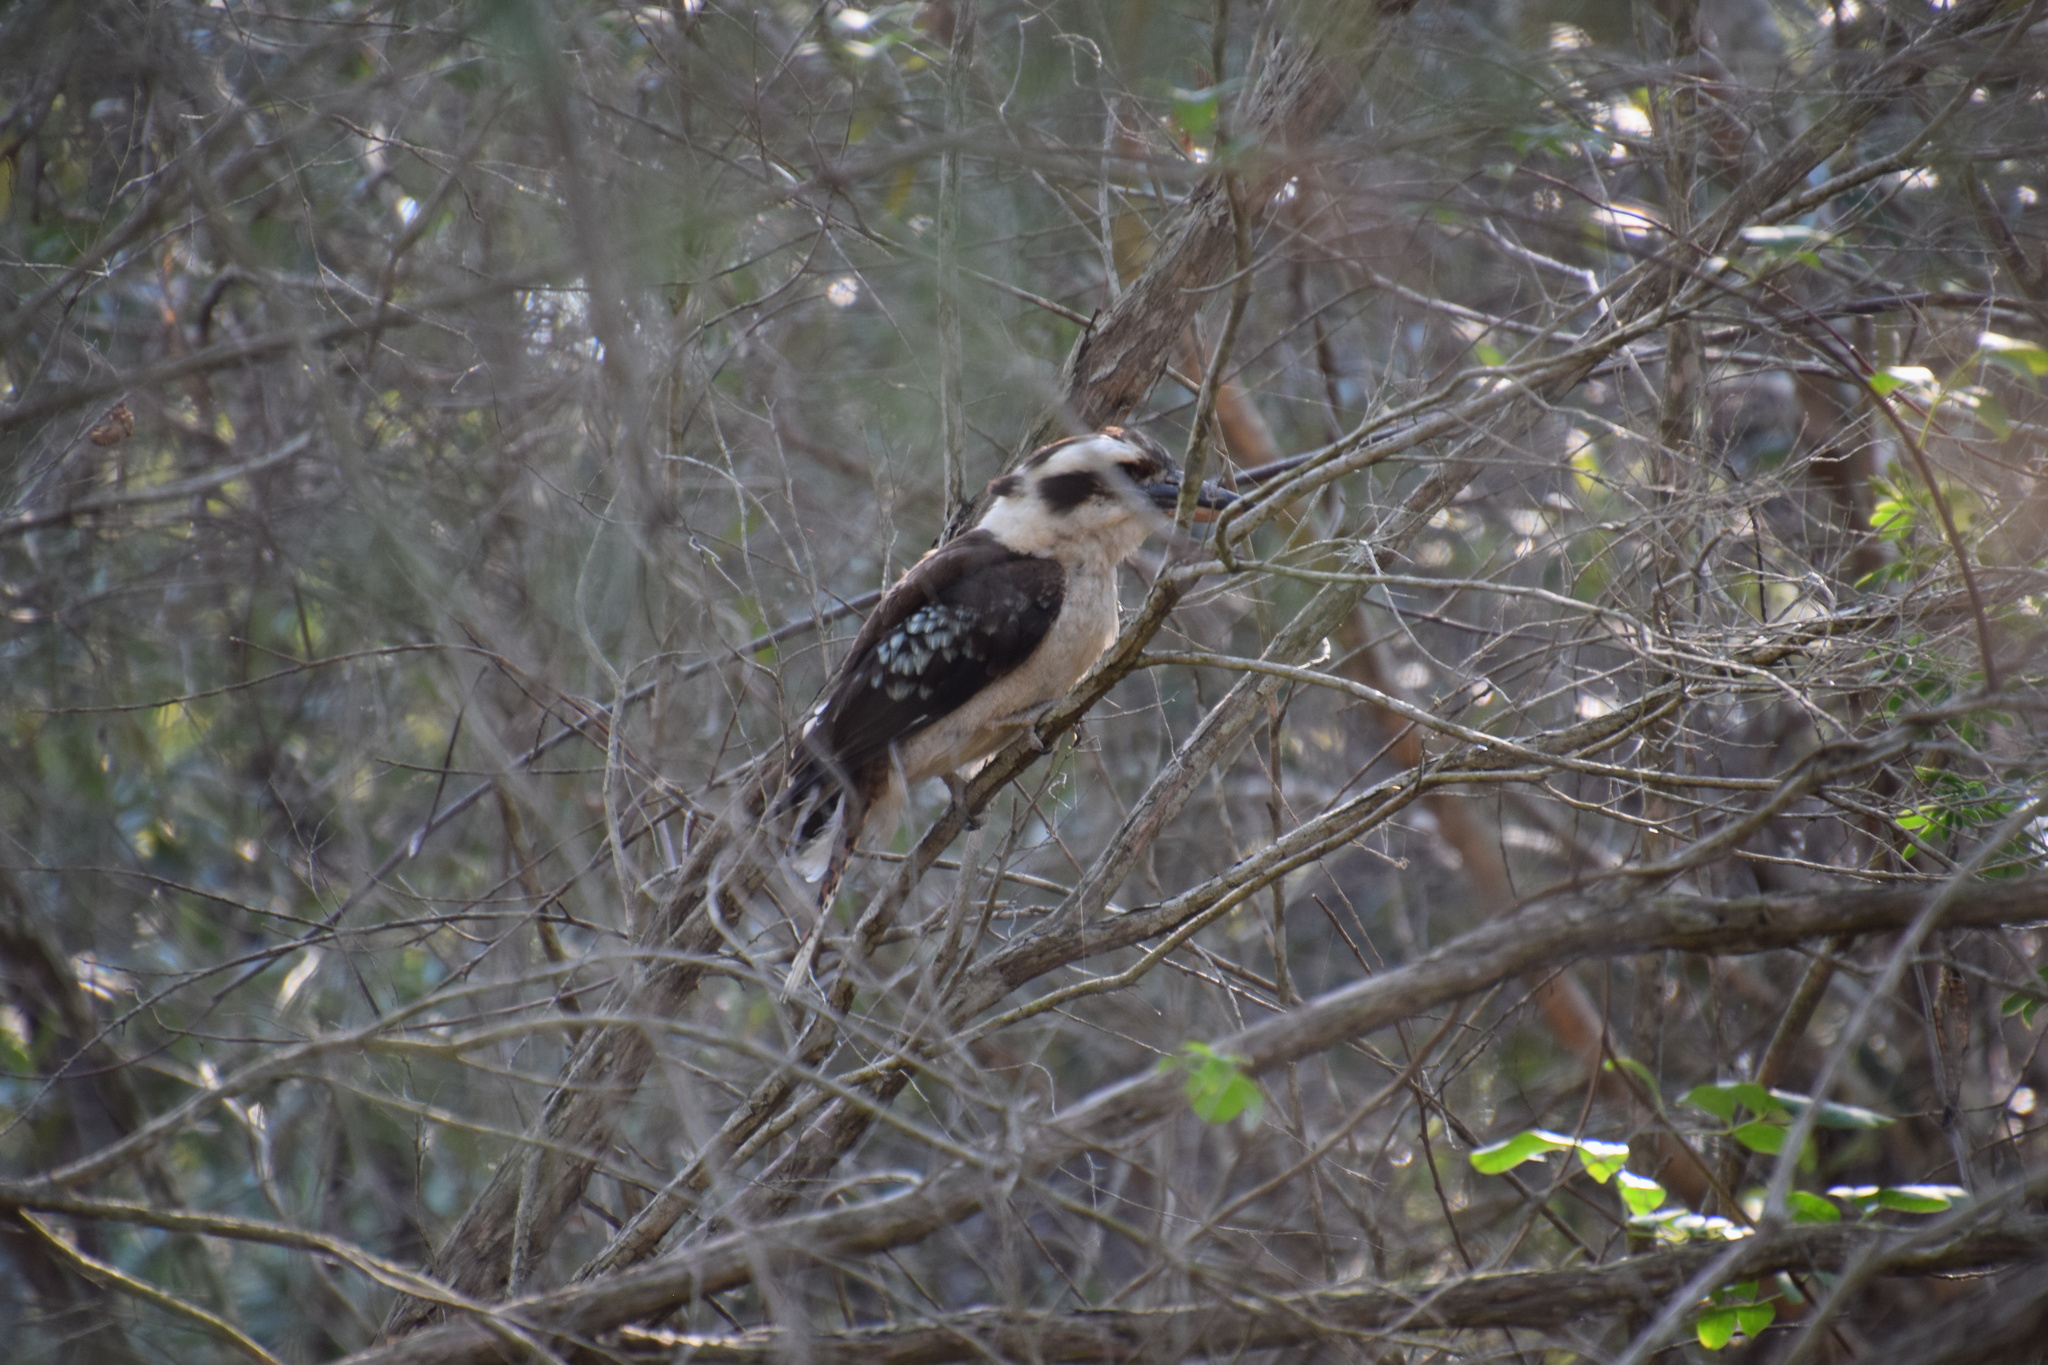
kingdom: Animalia
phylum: Chordata
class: Aves
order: Coraciiformes
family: Alcedinidae
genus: Dacelo
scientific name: Dacelo novaeguineae
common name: Laughing kookaburra
